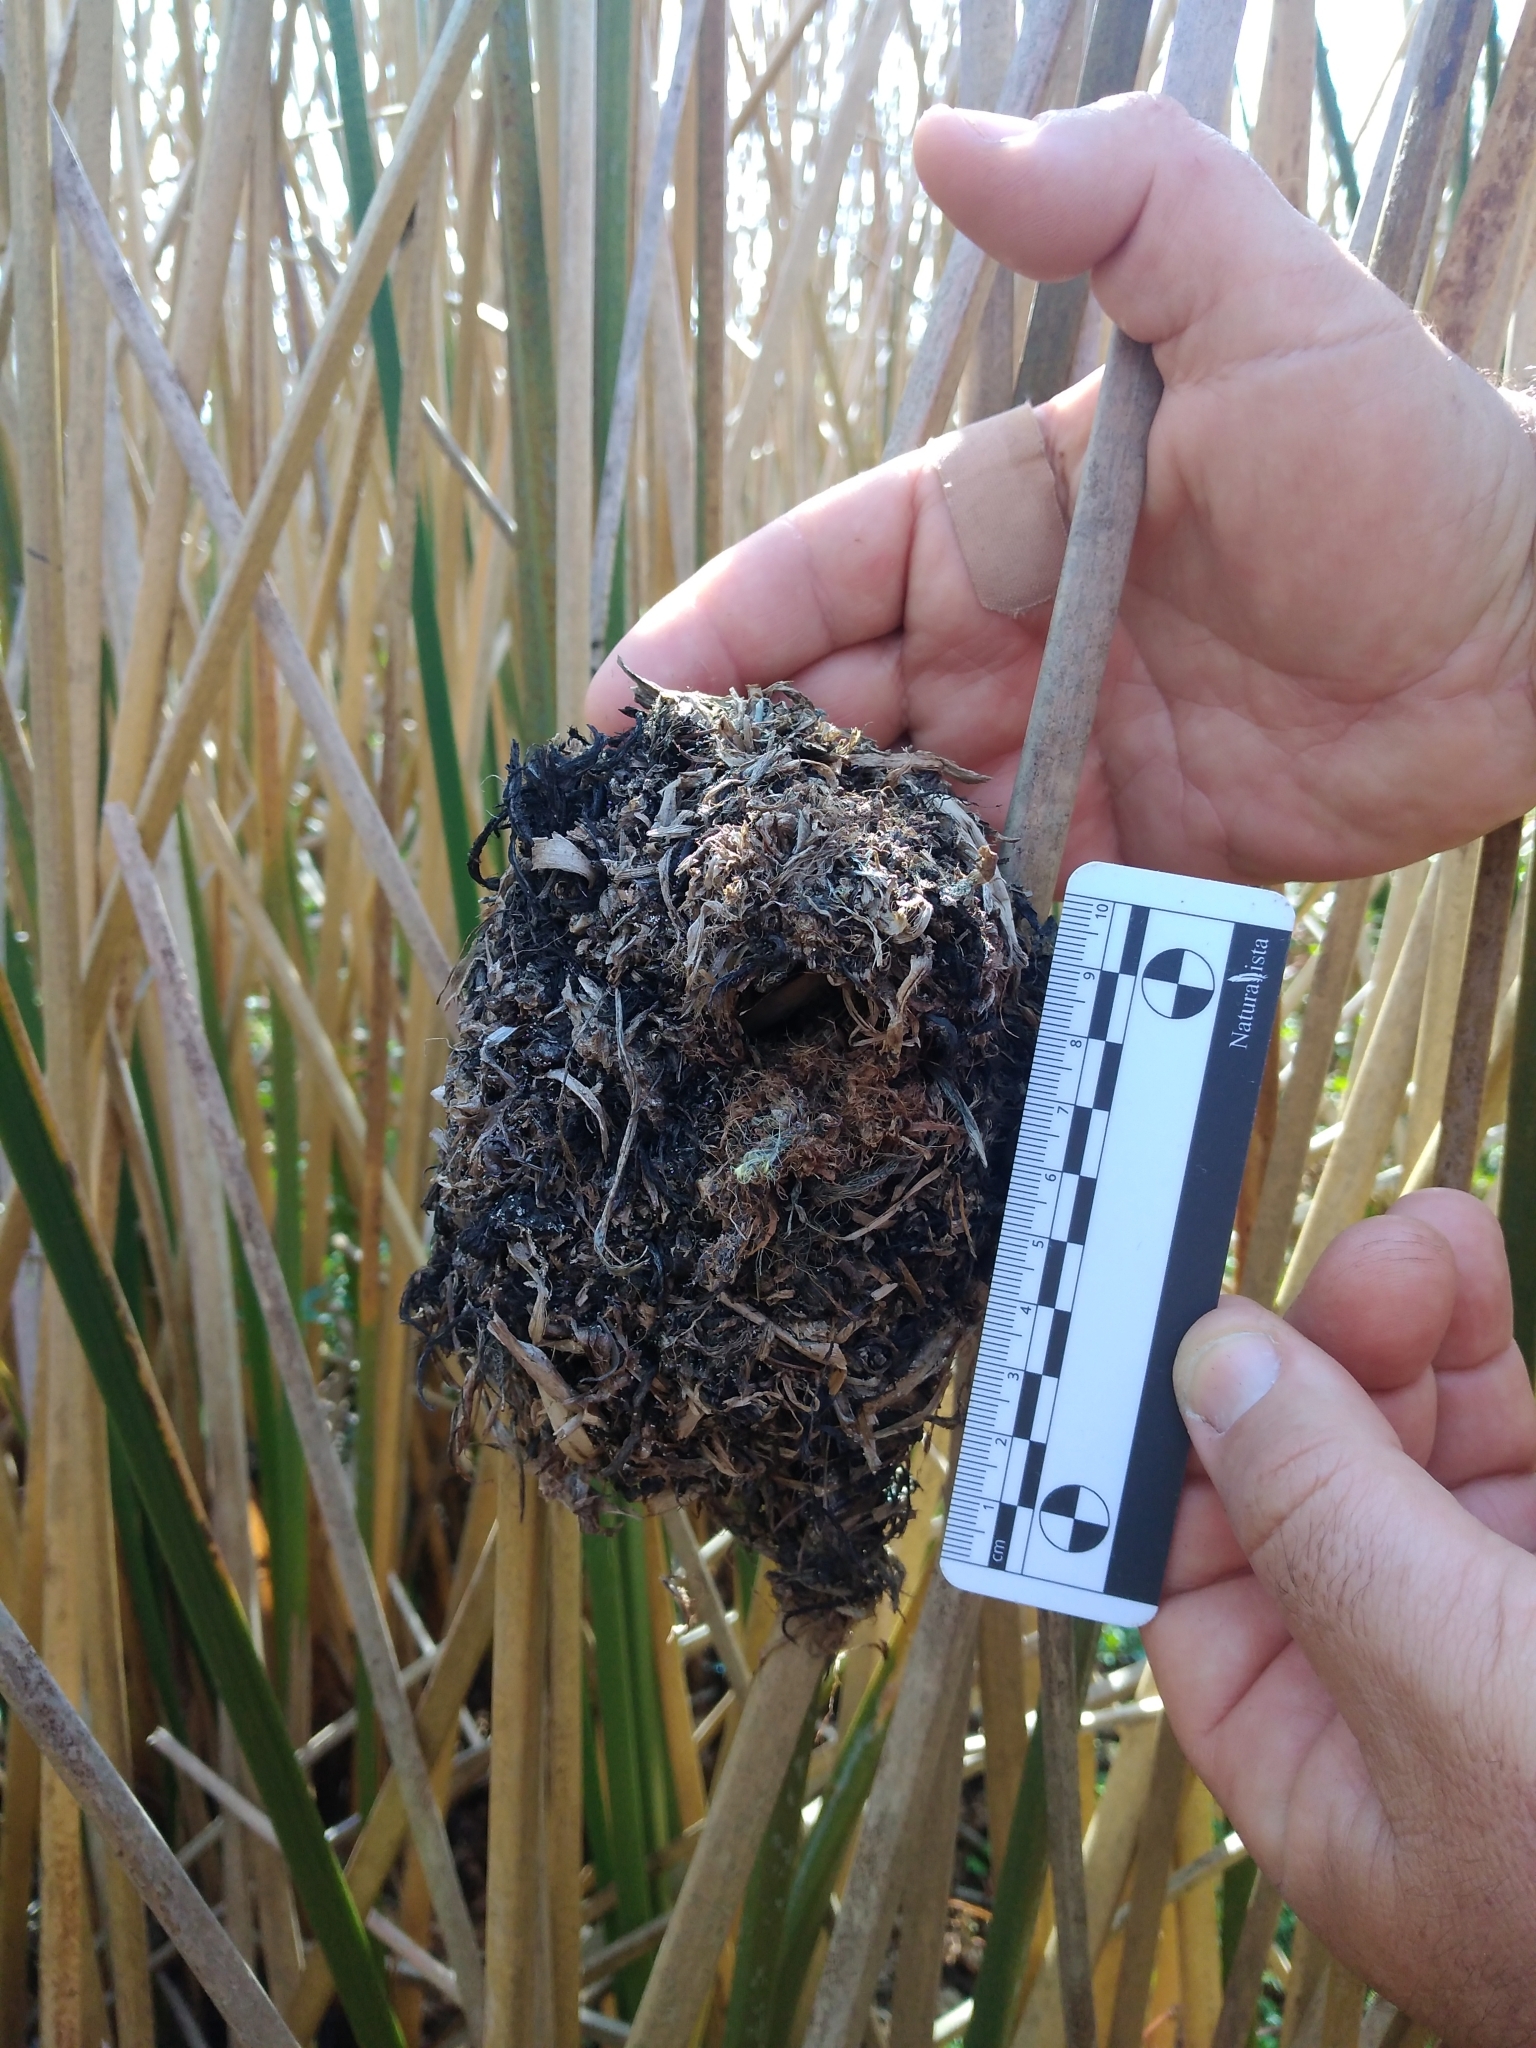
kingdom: Animalia
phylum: Chordata
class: Aves
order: Passeriformes
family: Furnariidae
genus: Phleocryptes
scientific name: Phleocryptes melanops
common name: Wren-like rushbird
